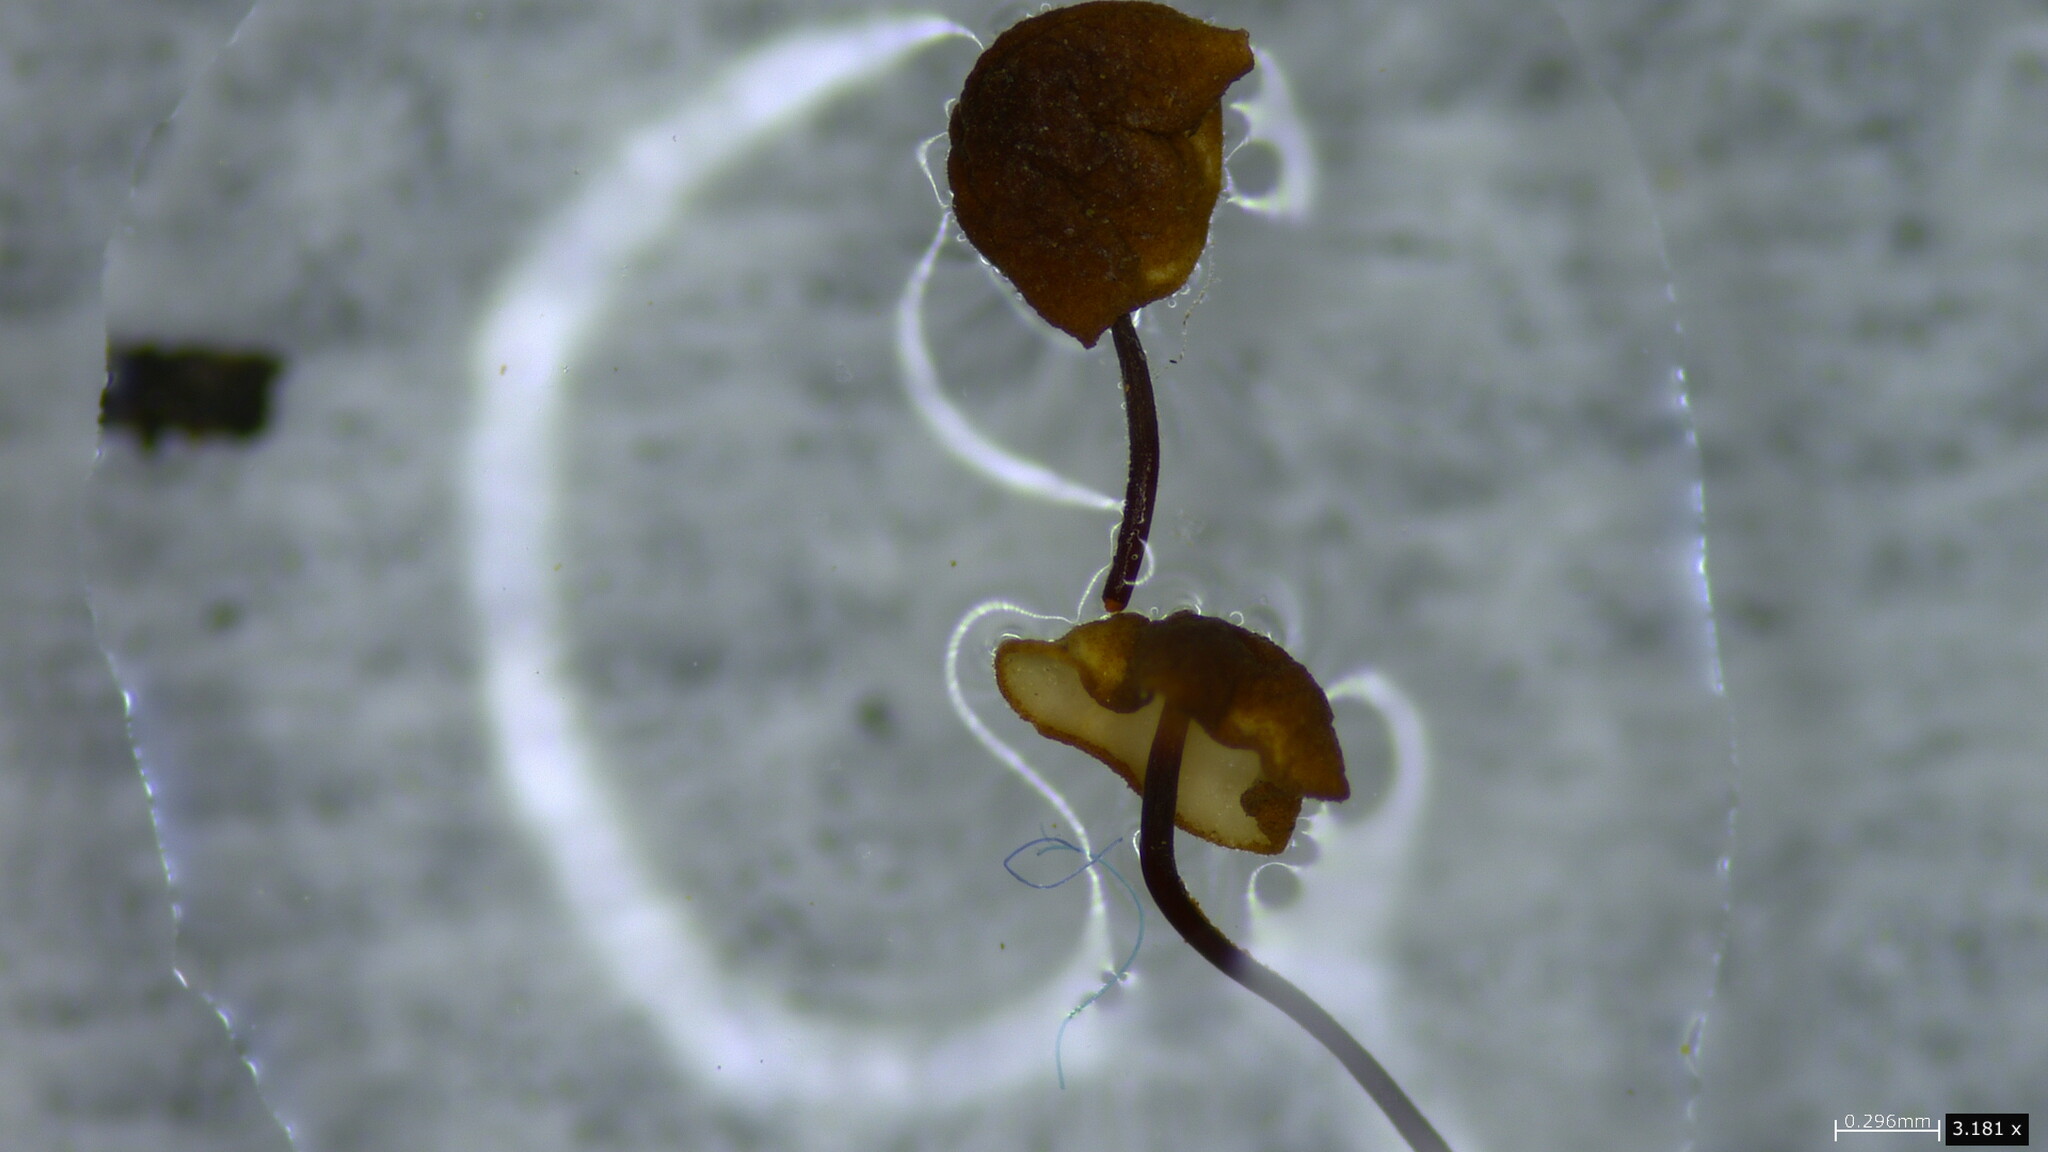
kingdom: Fungi
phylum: Basidiomycota
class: Agaricomycetes
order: Agaricales
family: Physalacriaceae
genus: Cryptomarasmius
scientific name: Cryptomarasmius aucubae
